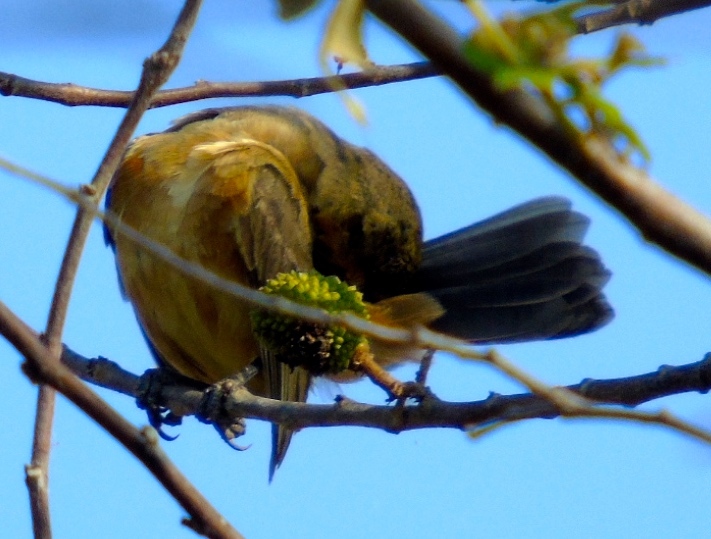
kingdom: Animalia
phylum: Chordata
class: Aves
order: Passeriformes
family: Icteridae
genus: Icterus
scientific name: Icterus
